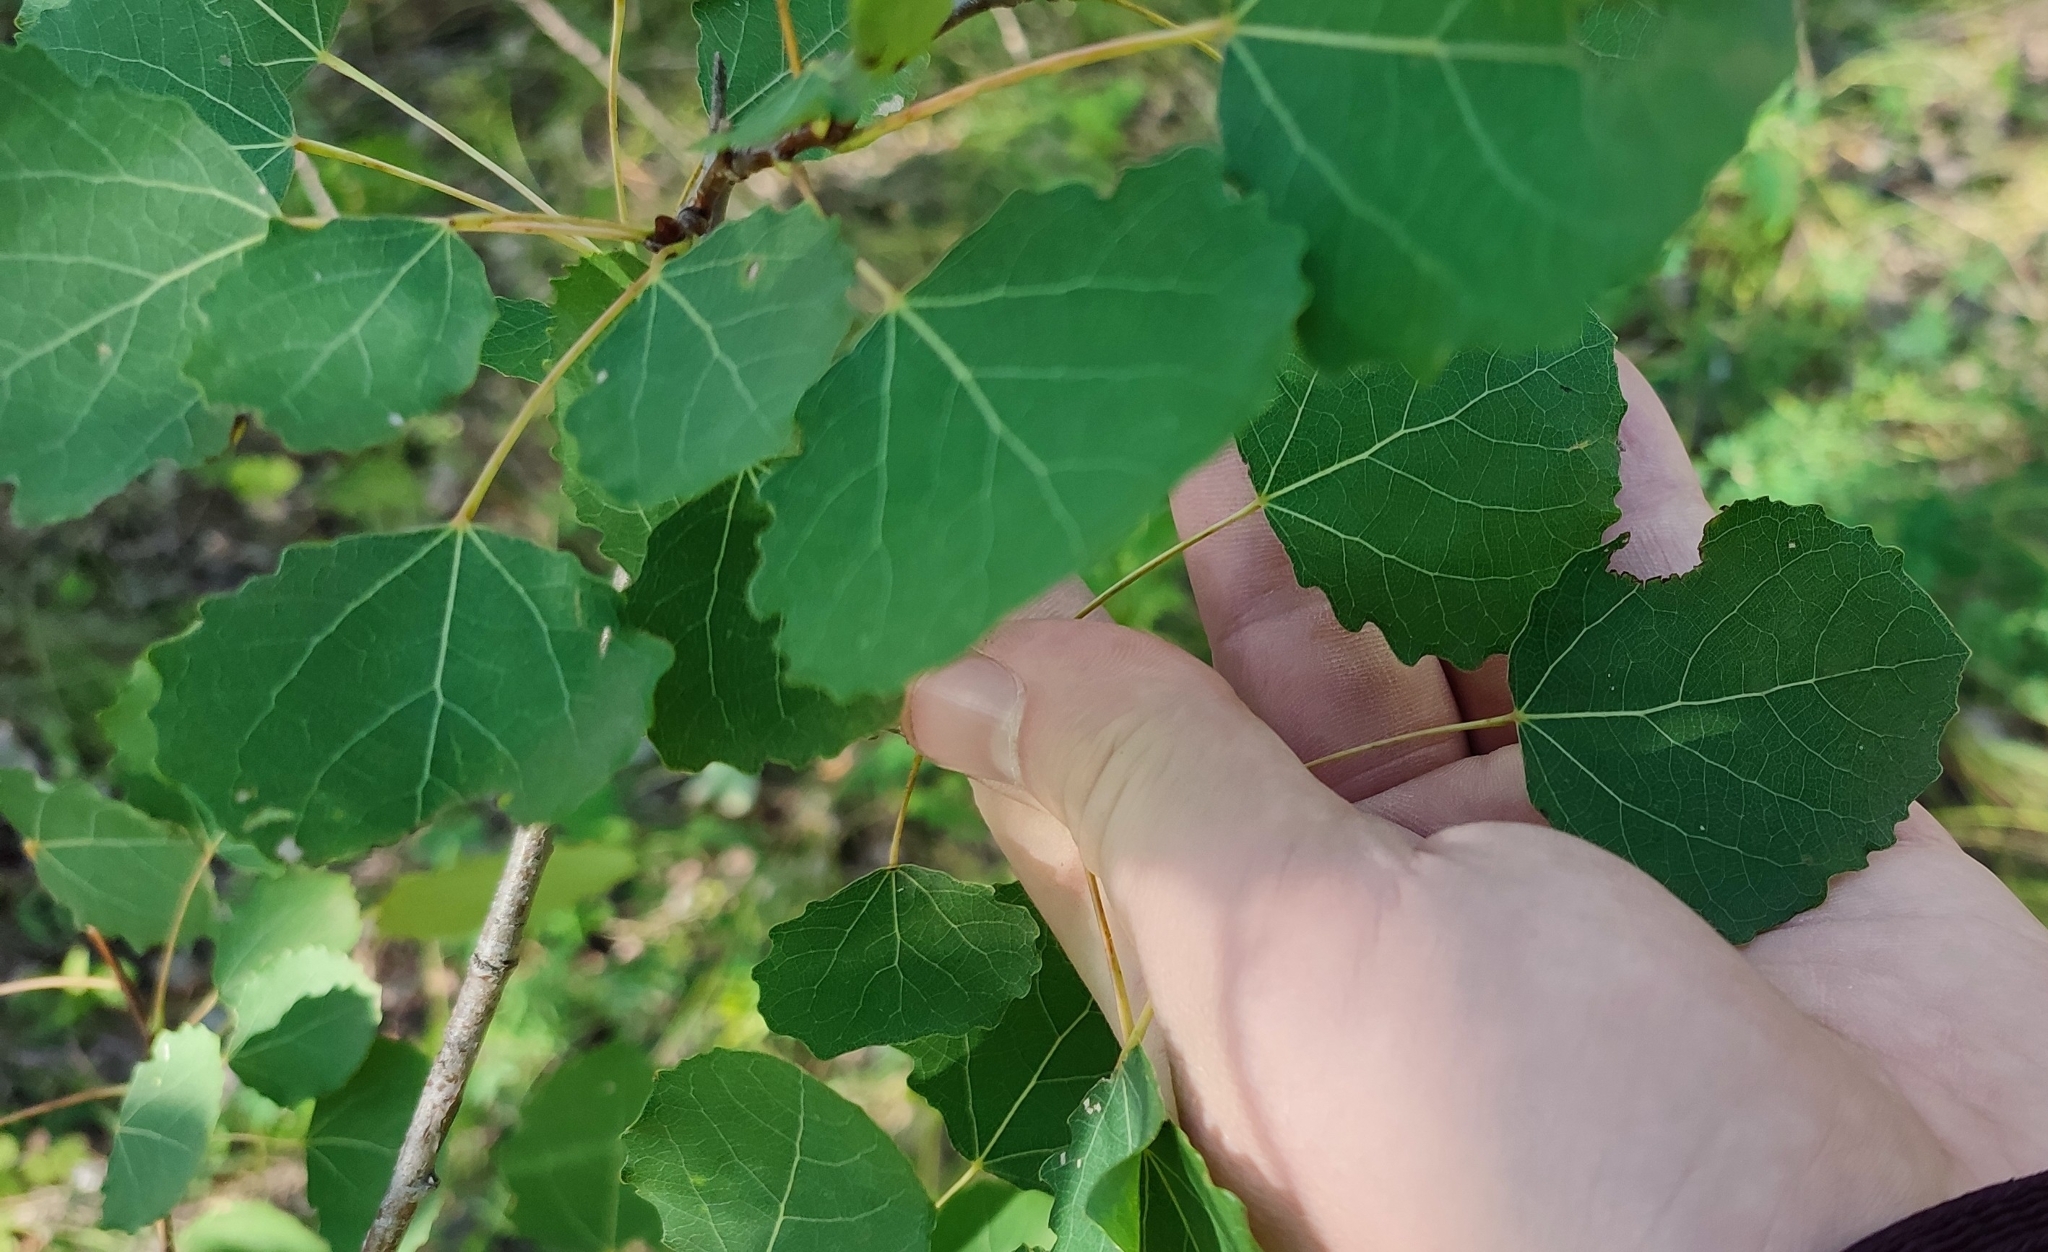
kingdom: Plantae
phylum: Tracheophyta
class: Magnoliopsida
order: Malpighiales
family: Salicaceae
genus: Populus
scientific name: Populus tremula
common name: European aspen
